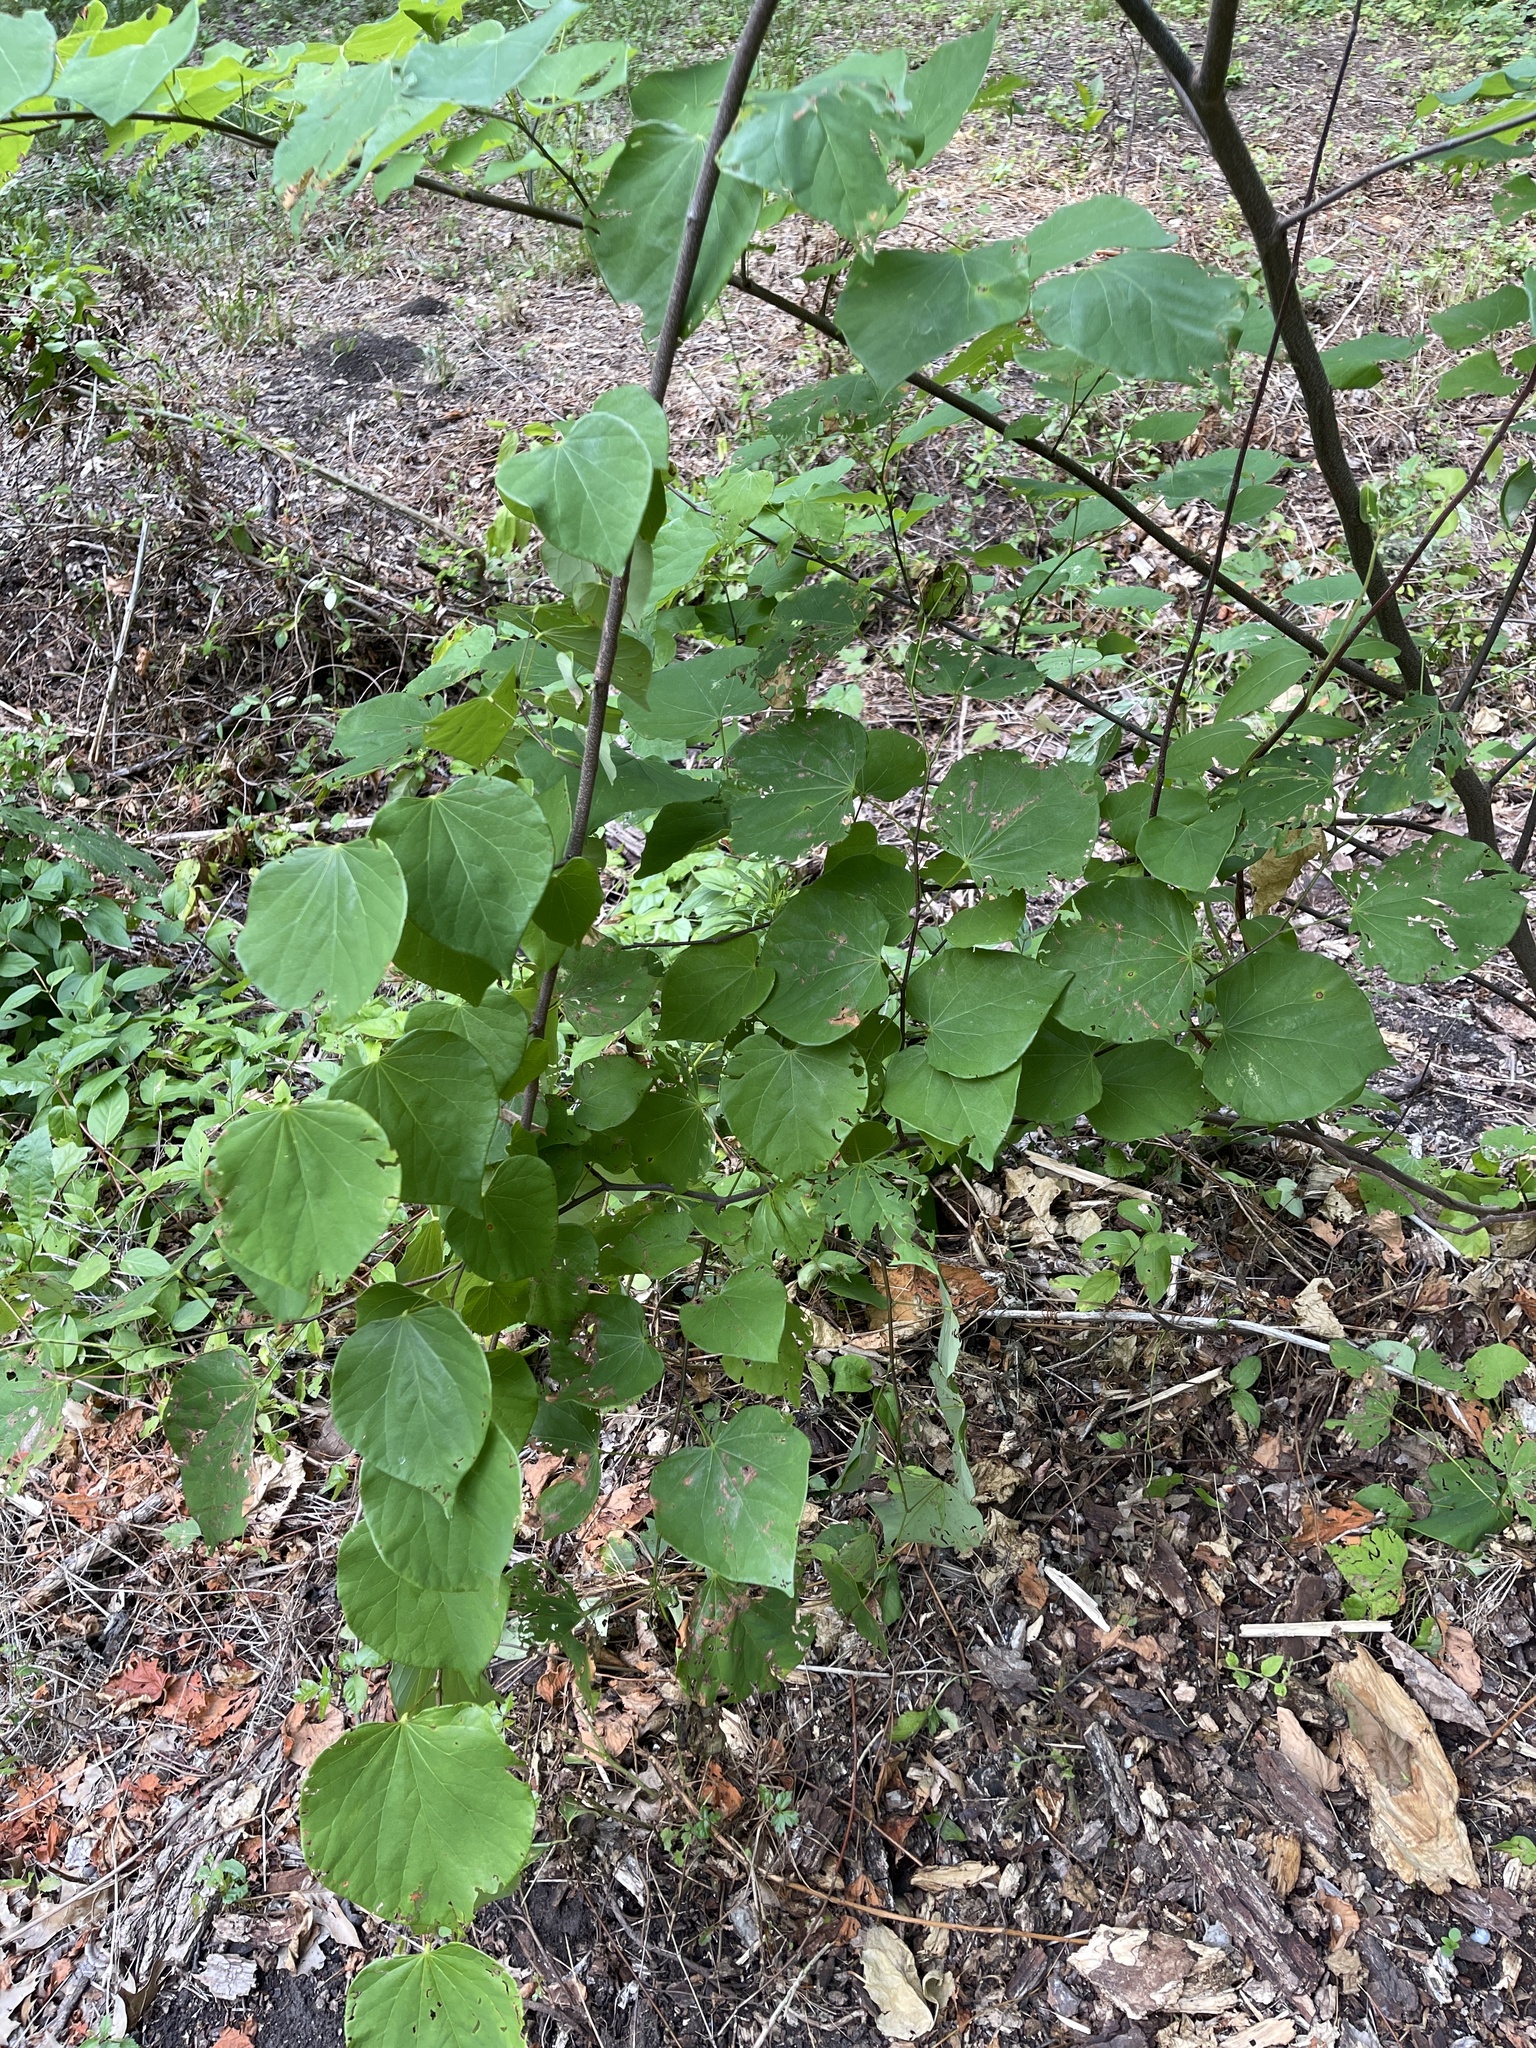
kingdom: Plantae
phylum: Tracheophyta
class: Magnoliopsida
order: Fabales
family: Fabaceae
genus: Cercis
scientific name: Cercis canadensis
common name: Eastern redbud
